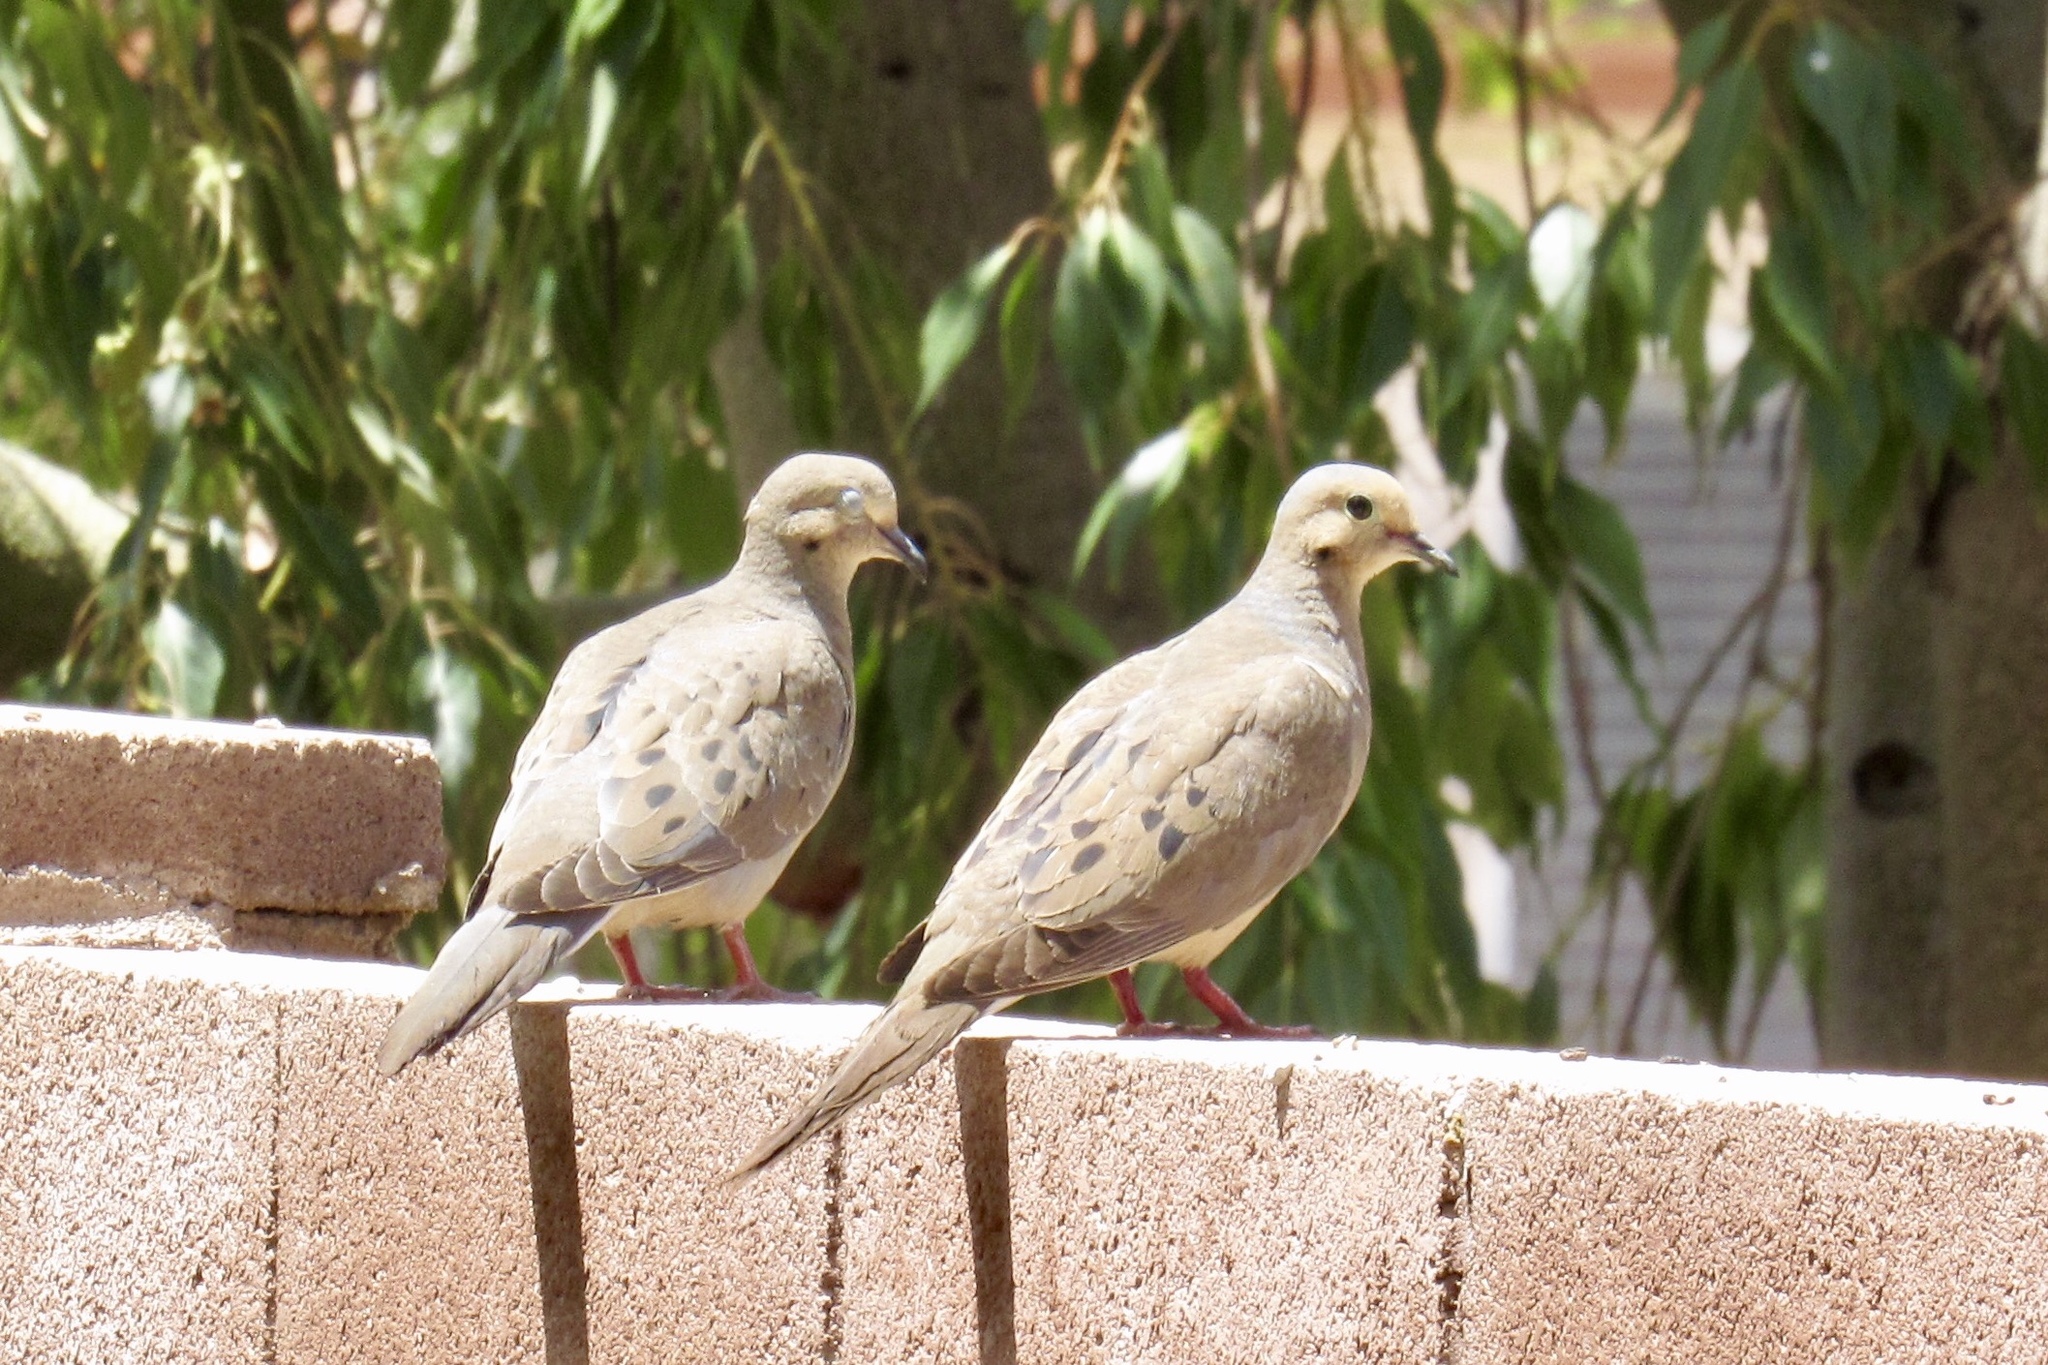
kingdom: Animalia
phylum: Chordata
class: Aves
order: Columbiformes
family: Columbidae
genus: Zenaida
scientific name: Zenaida macroura
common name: Mourning dove
